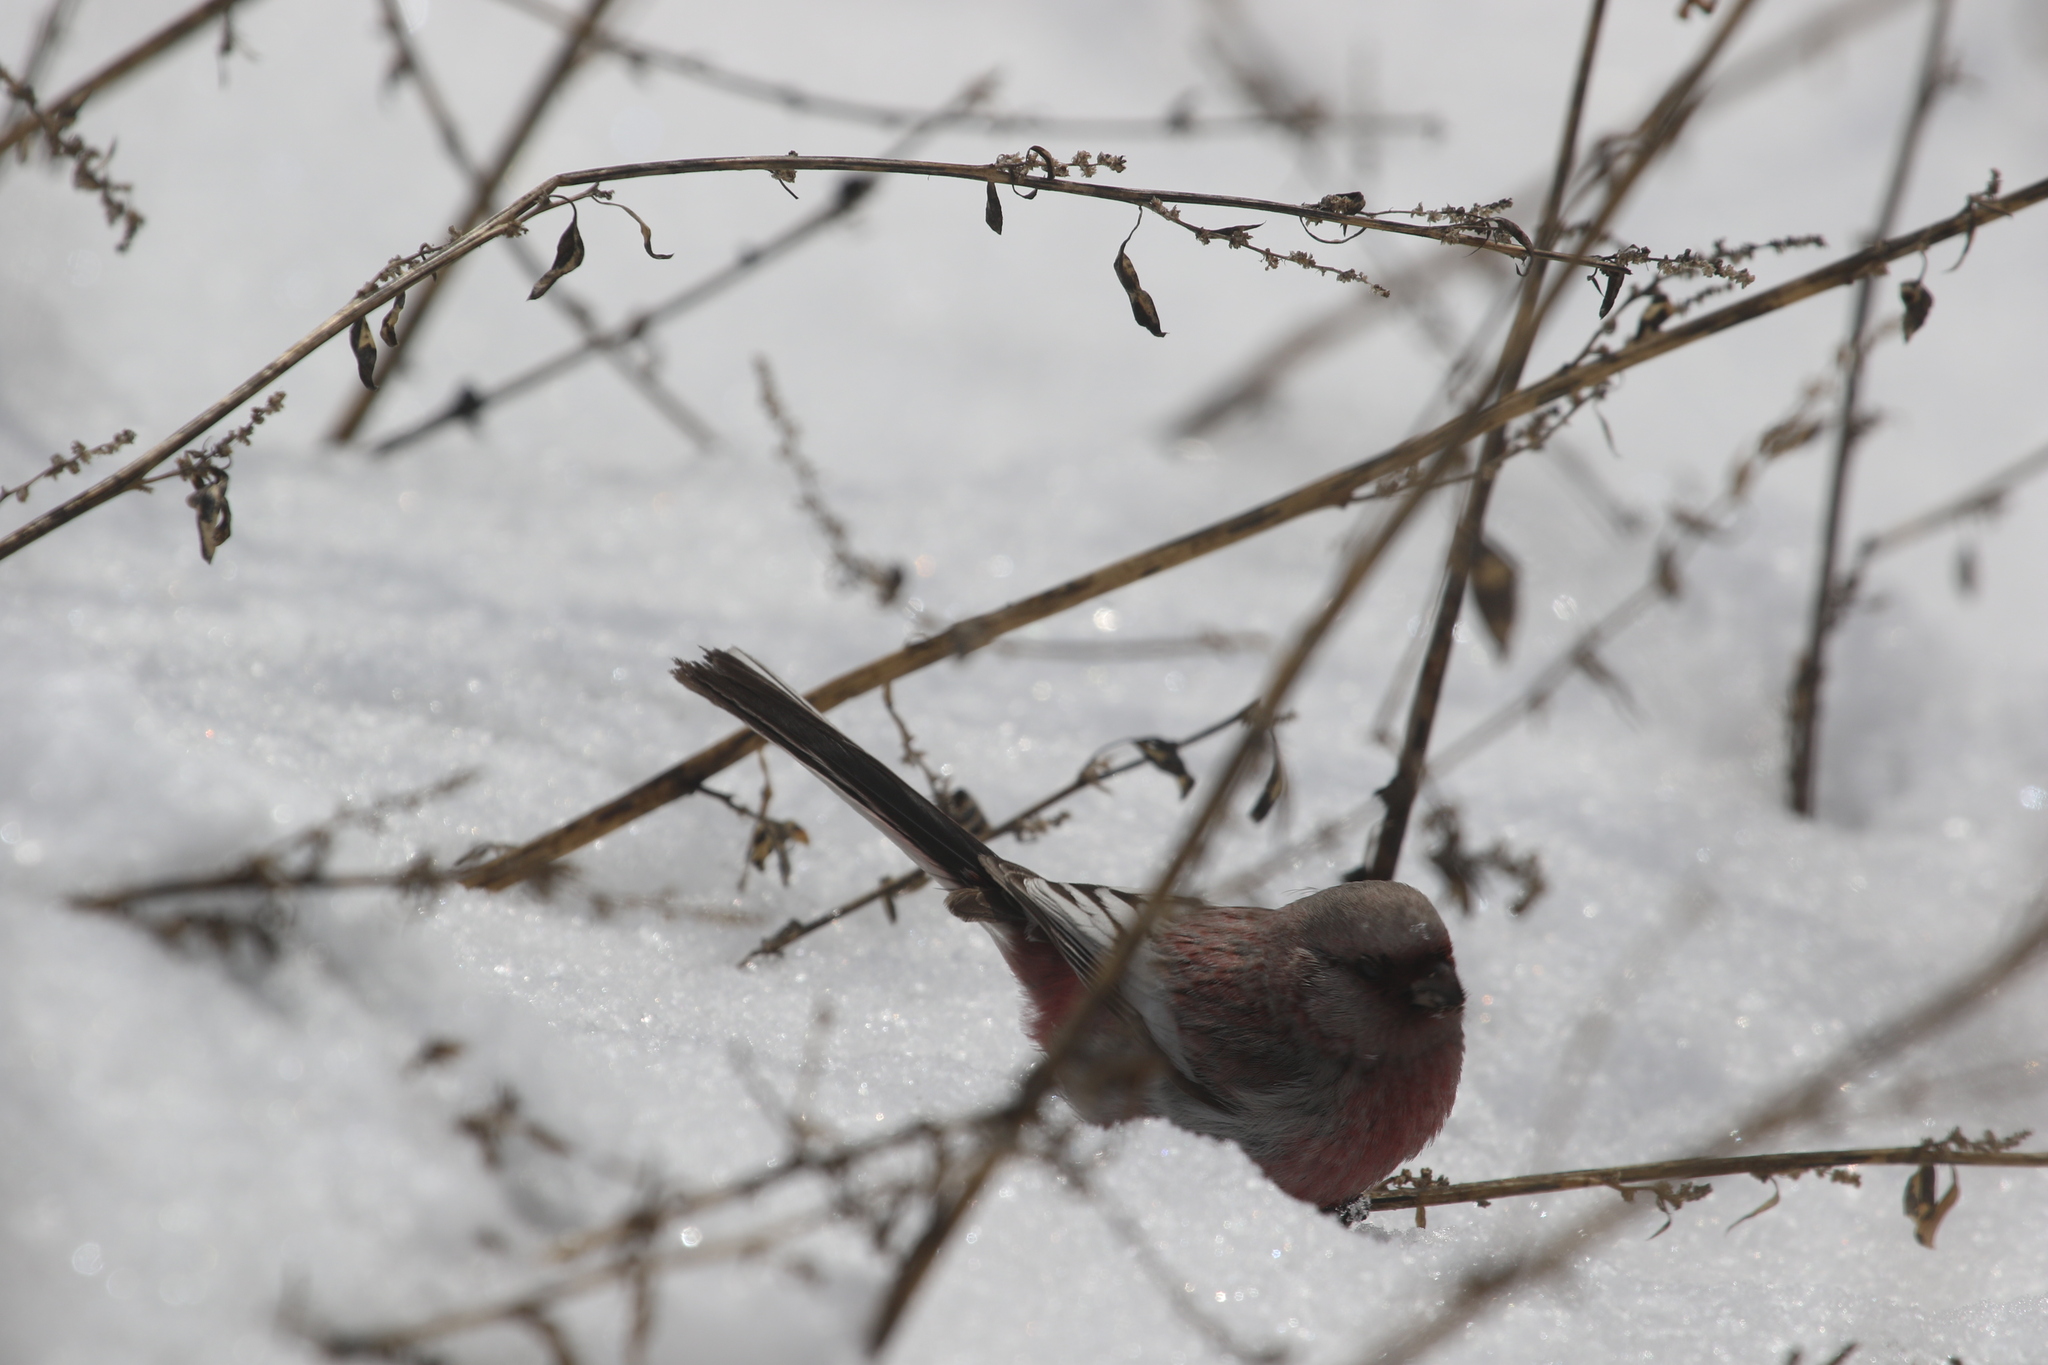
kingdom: Animalia
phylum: Chordata
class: Aves
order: Passeriformes
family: Fringillidae
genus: Carpodacus
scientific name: Carpodacus sibiricus
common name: Long-tailed rosefinch
